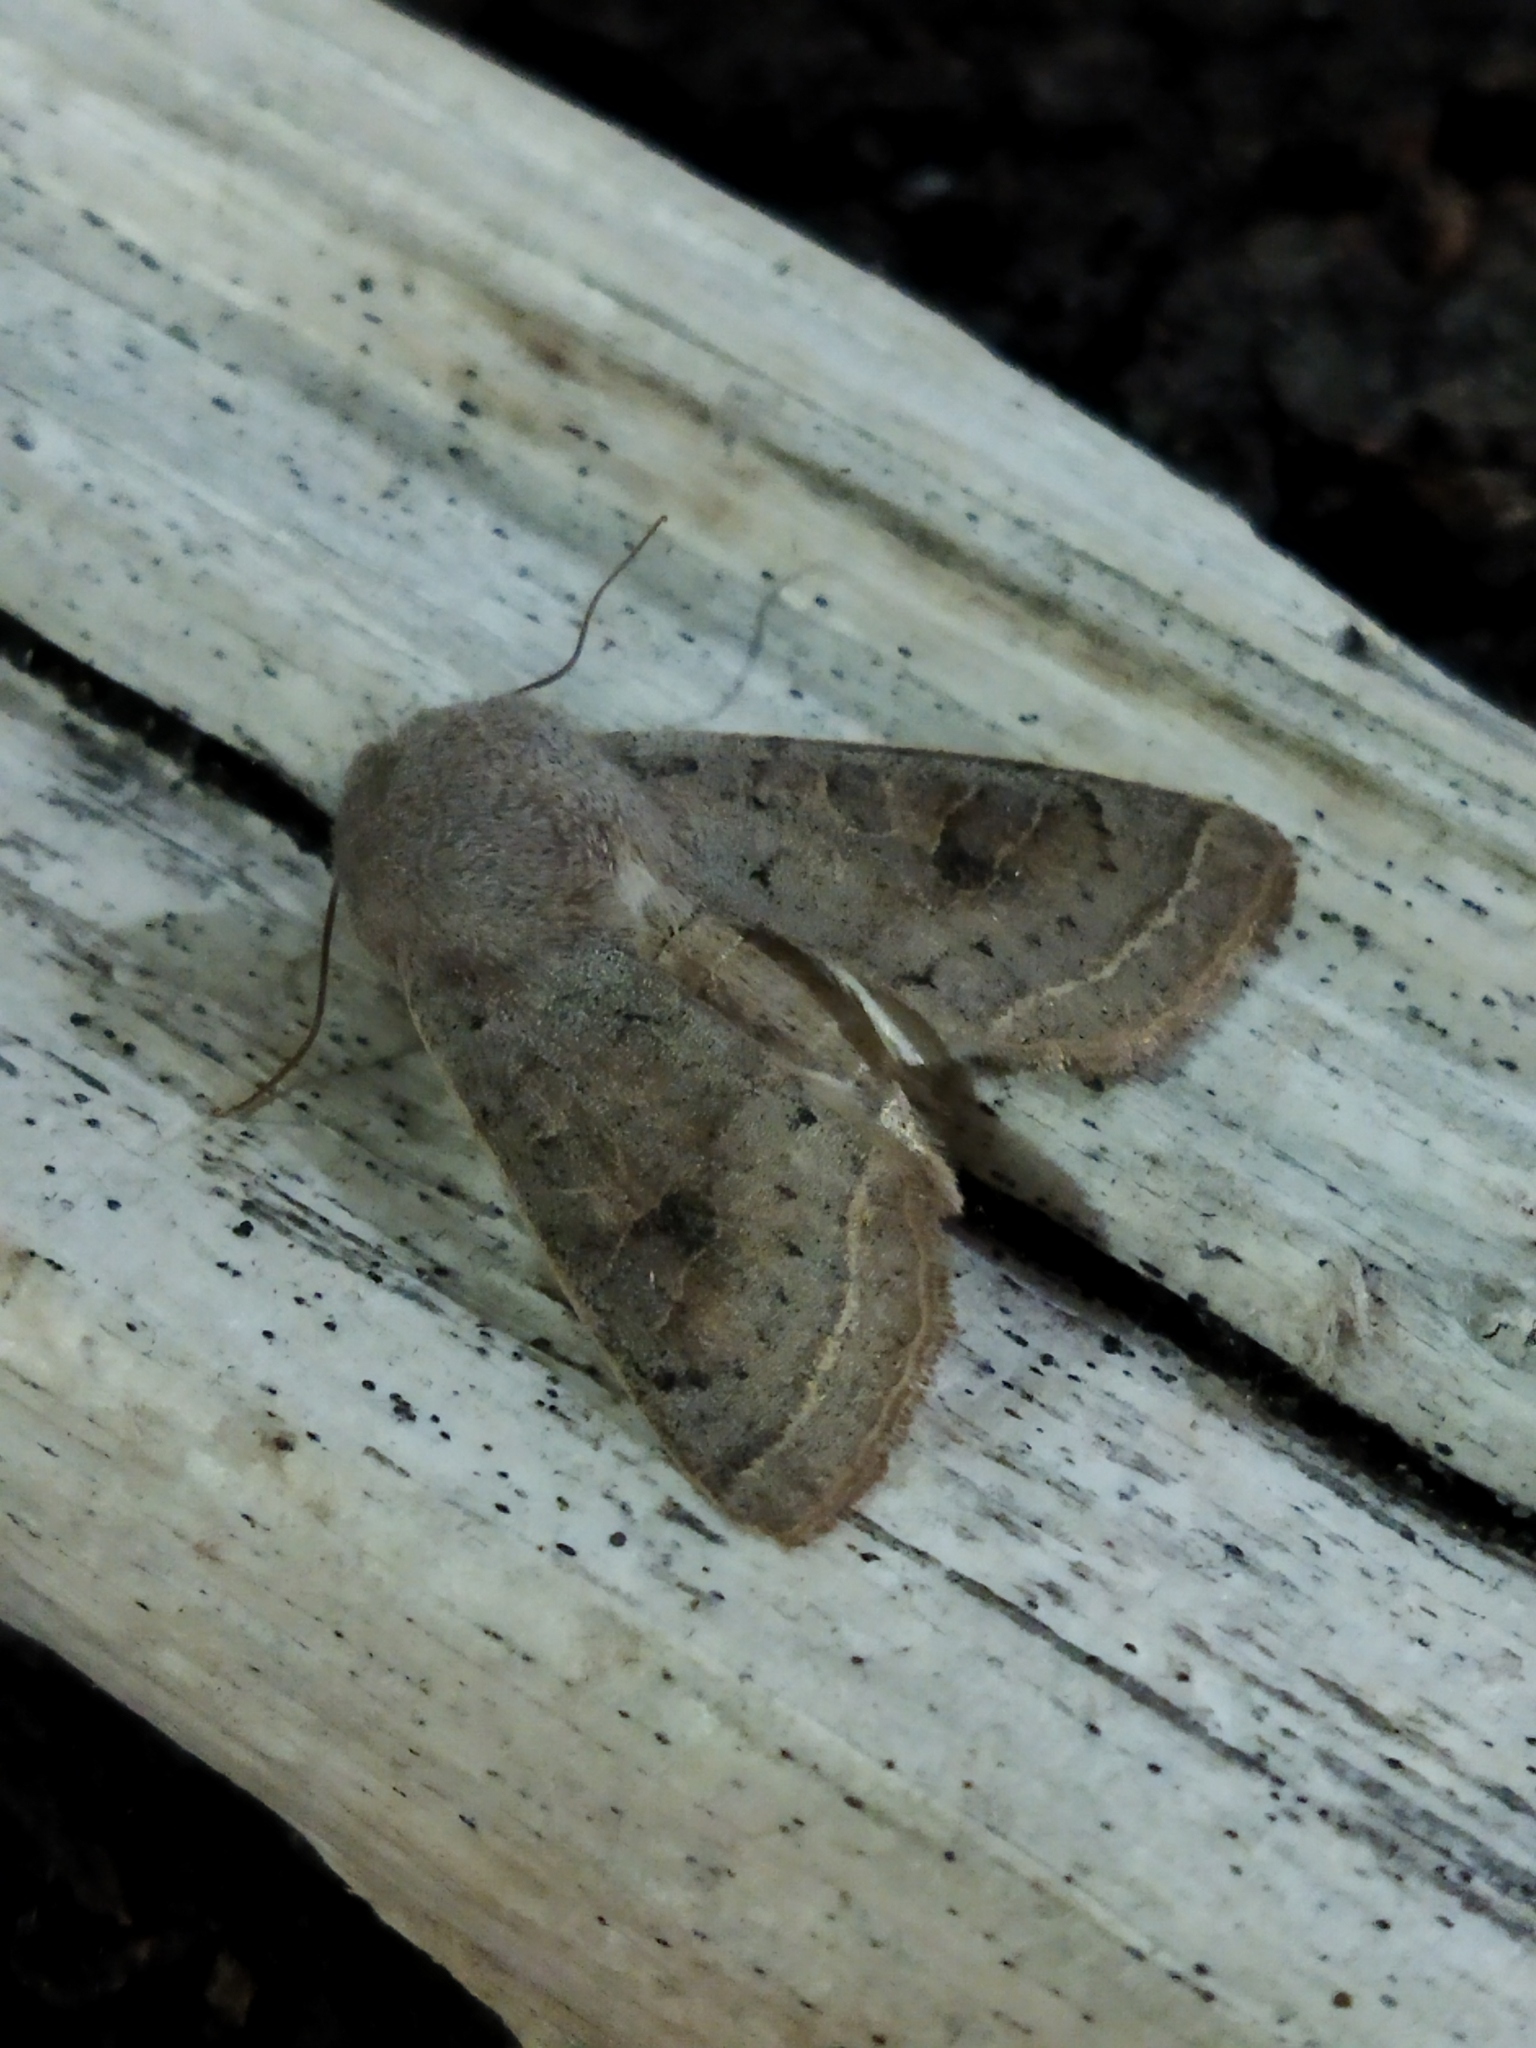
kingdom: Animalia
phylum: Arthropoda
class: Insecta
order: Lepidoptera
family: Noctuidae
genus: Orthosia
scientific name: Orthosia gracilis
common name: Powdered quaker
